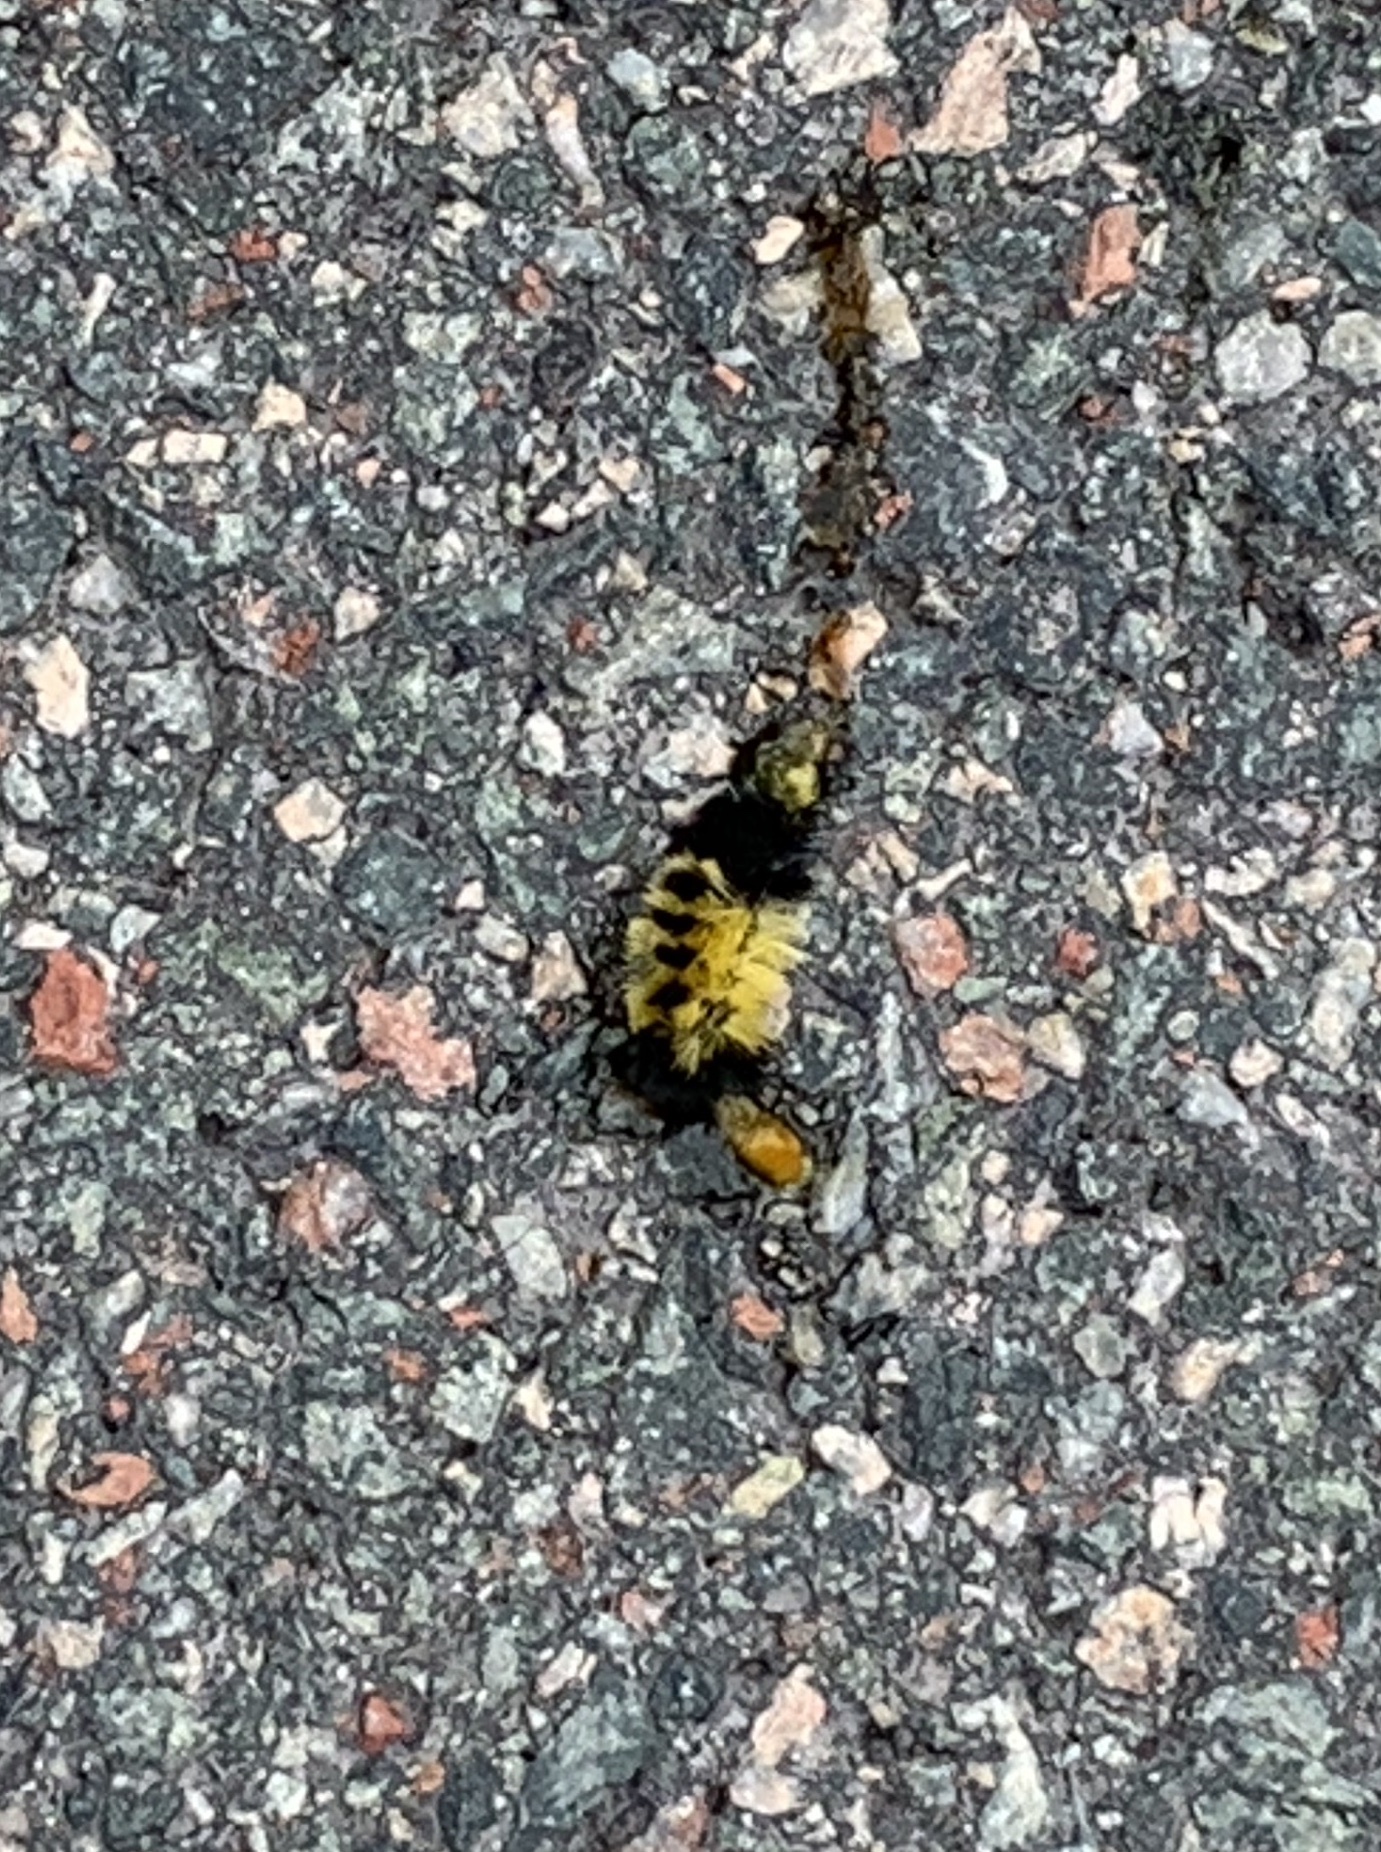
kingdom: Animalia
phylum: Arthropoda
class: Insecta
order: Lepidoptera
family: Erebidae
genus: Lophocampa
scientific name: Lophocampa maculata
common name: Spotted tussock moth
